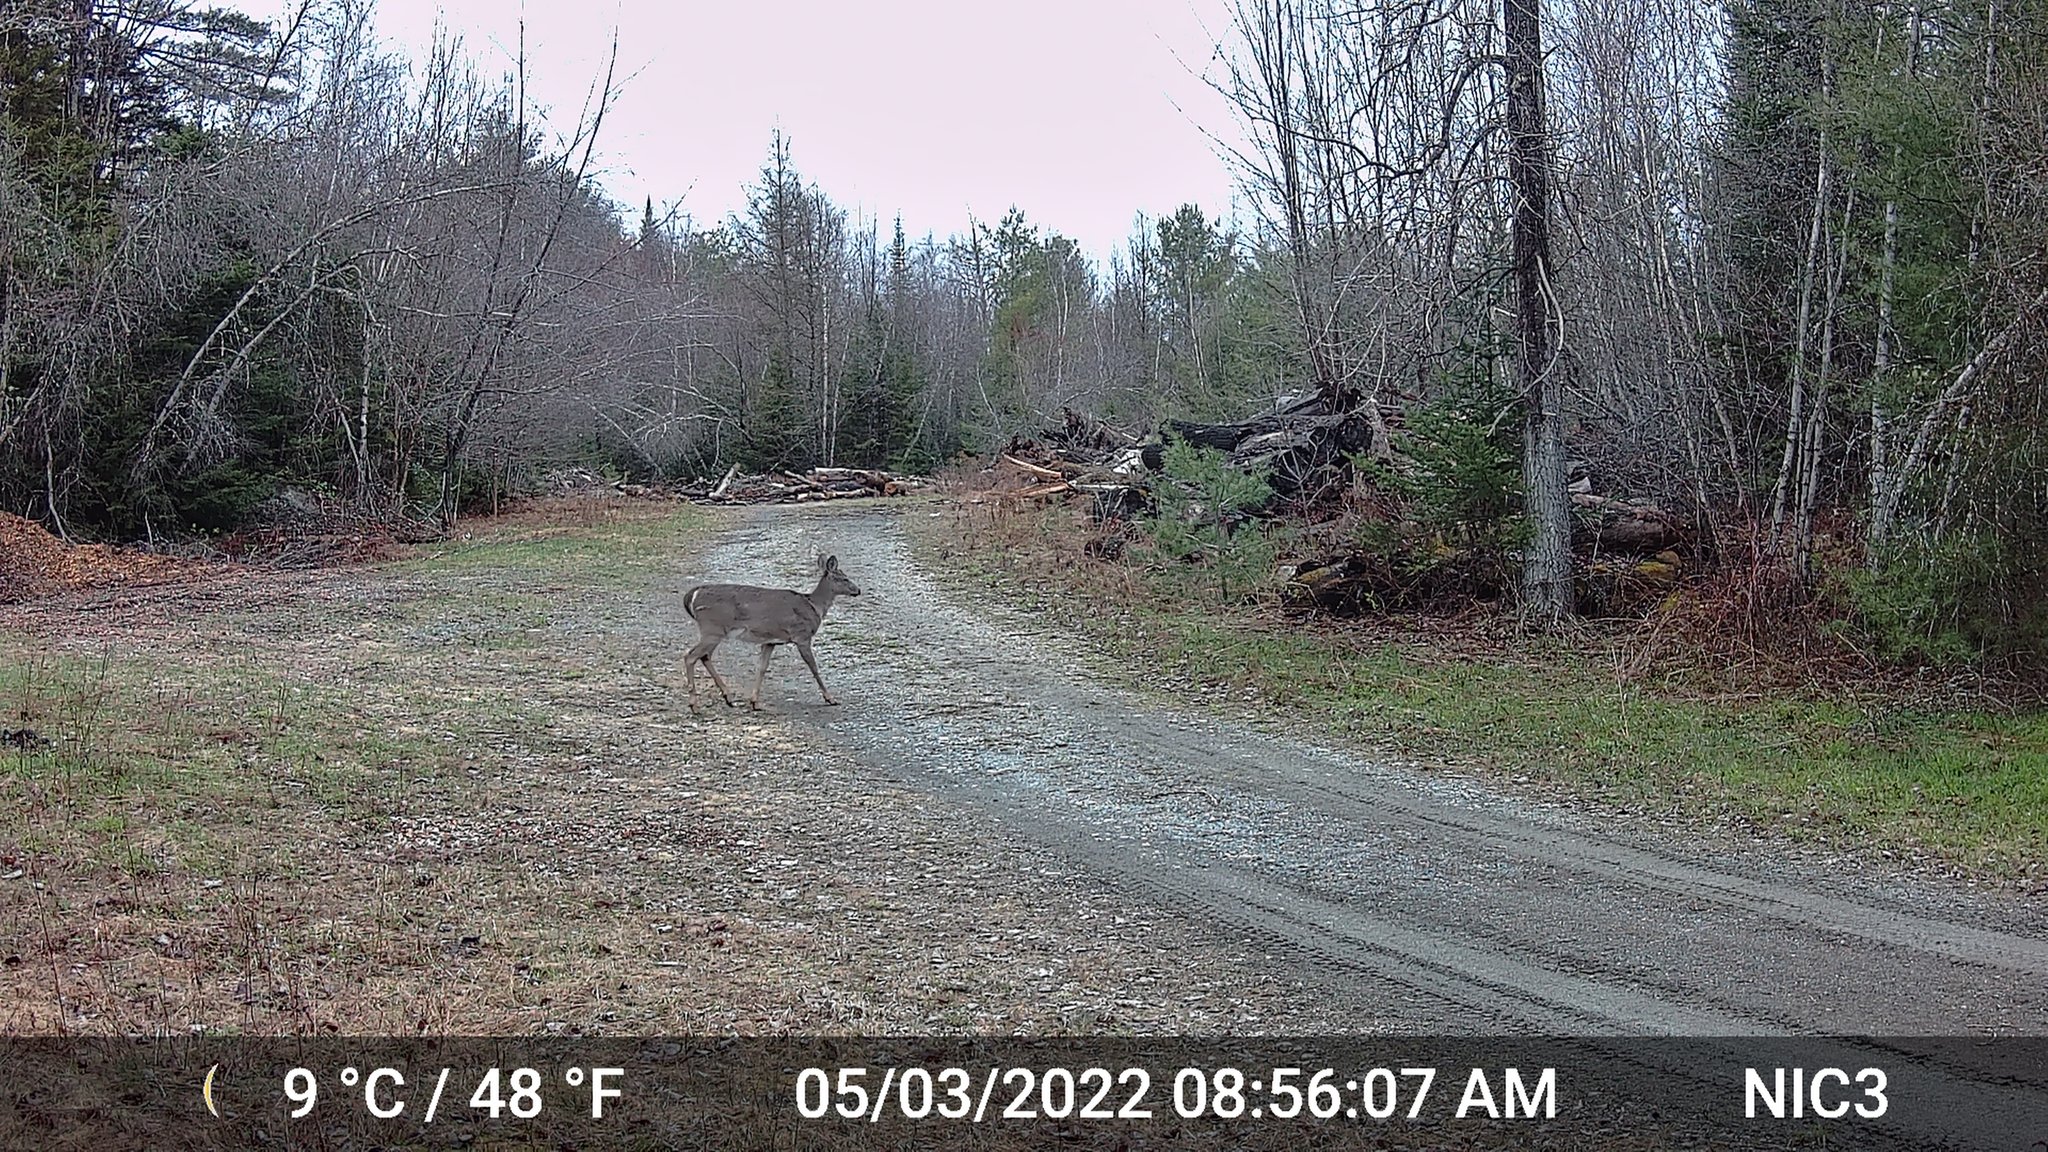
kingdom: Animalia
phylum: Chordata
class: Mammalia
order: Artiodactyla
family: Cervidae
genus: Odocoileus
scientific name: Odocoileus virginianus
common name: White-tailed deer
